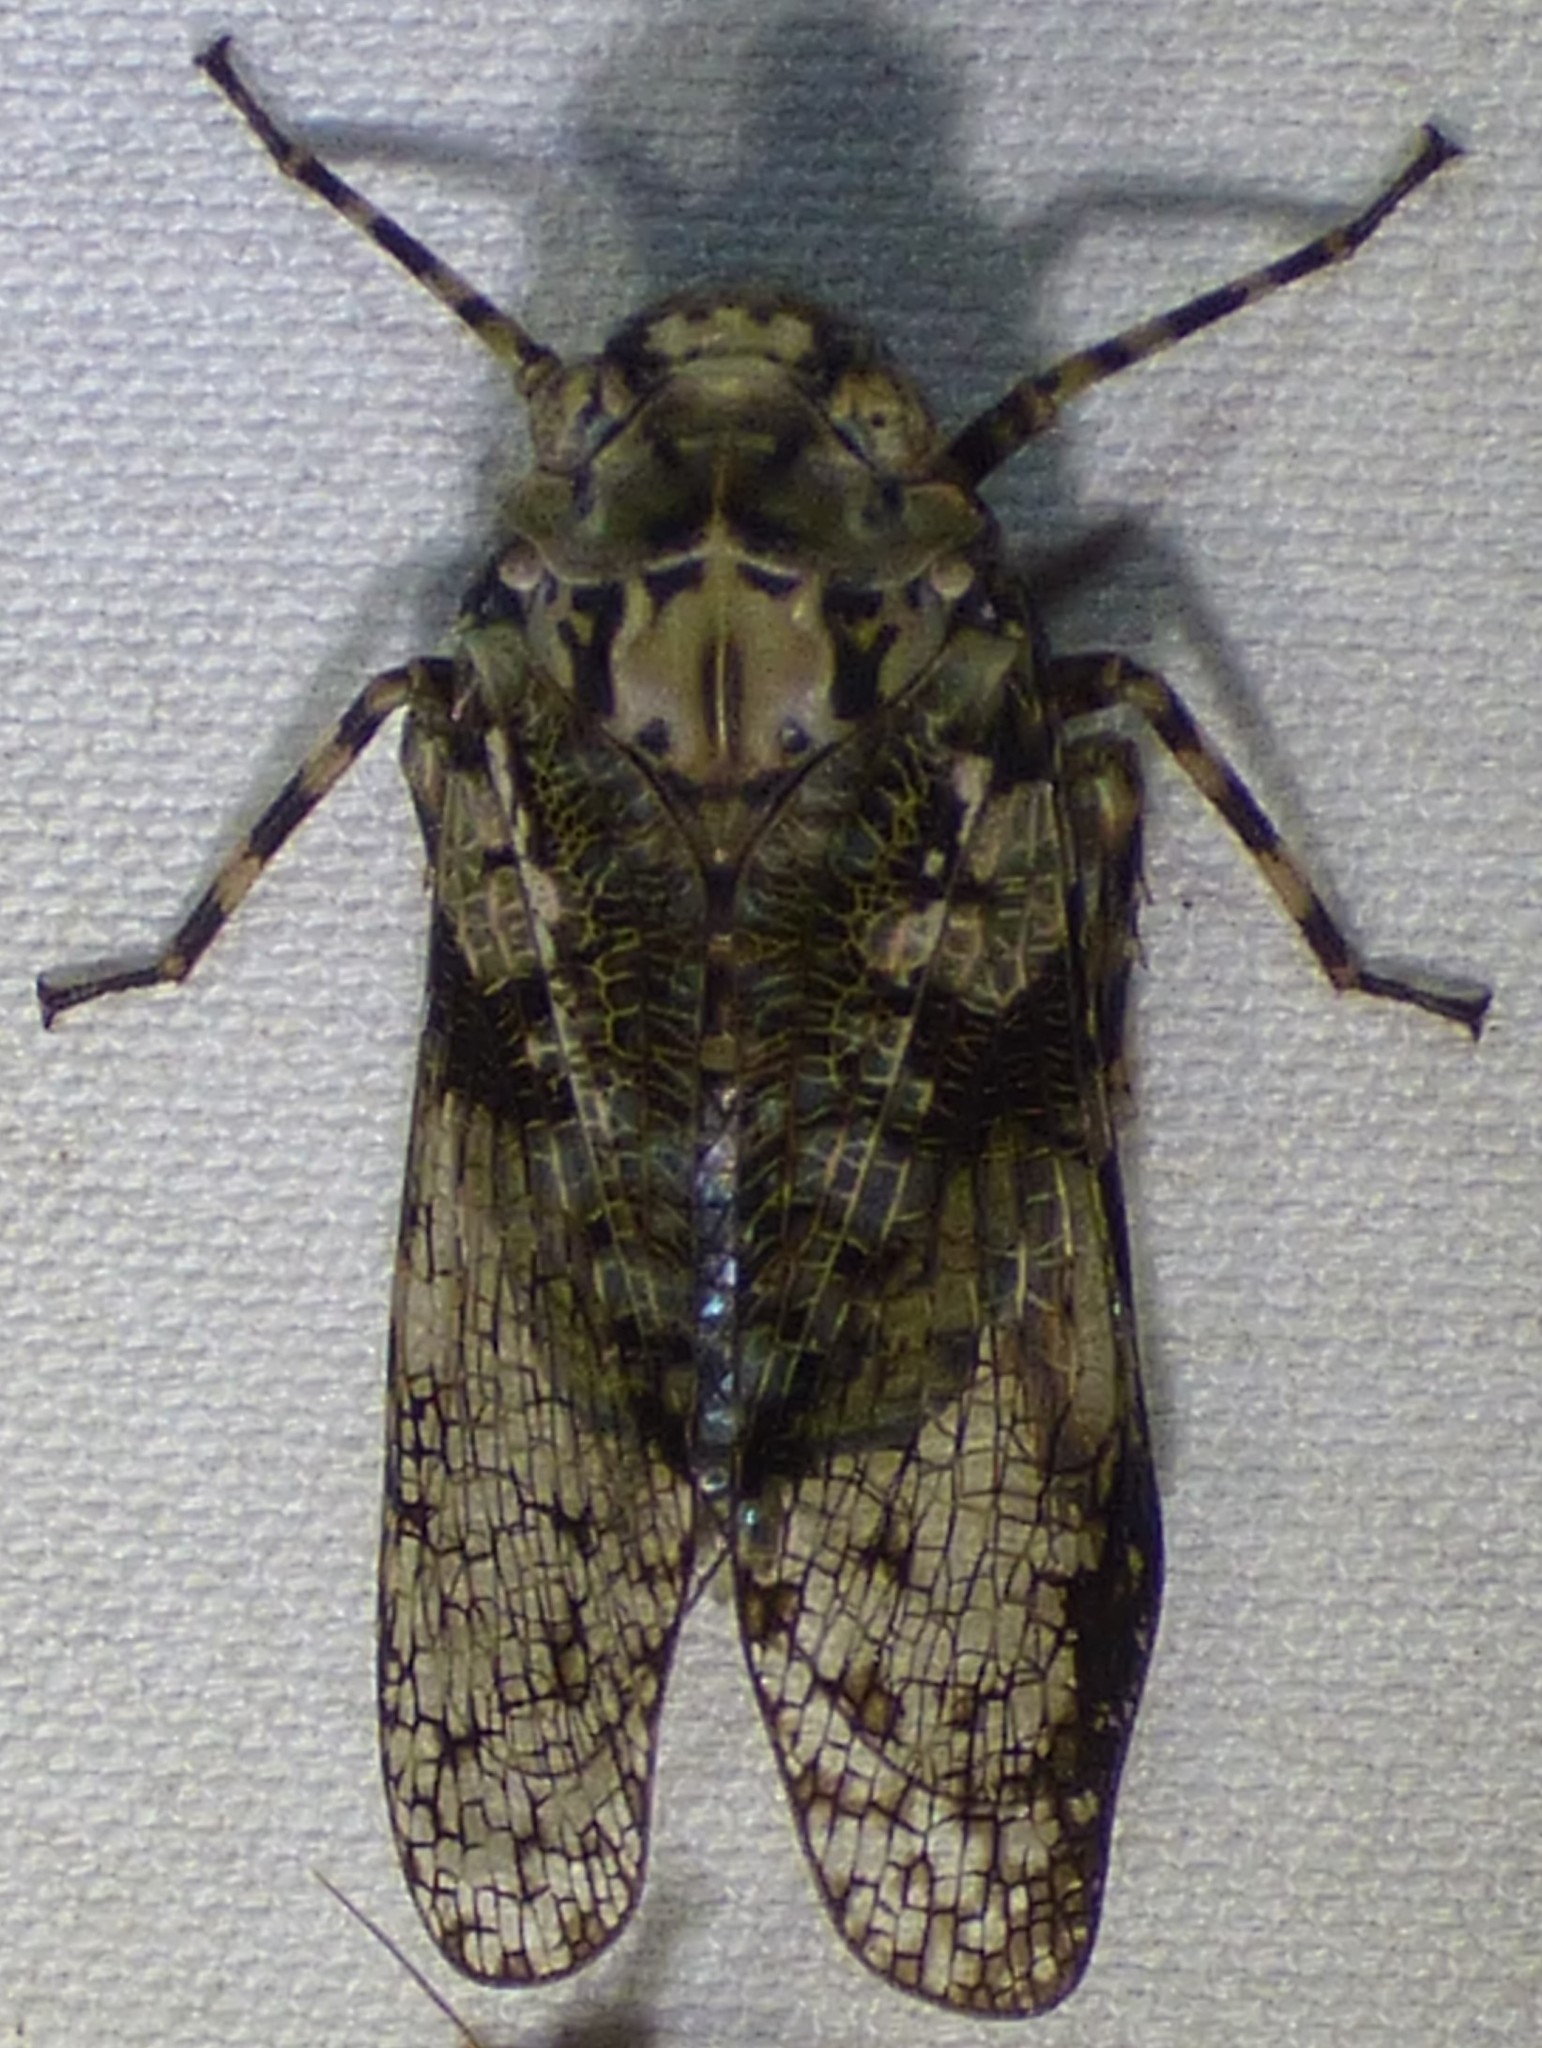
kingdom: Animalia
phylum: Arthropoda
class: Insecta
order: Hemiptera
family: Fulgoridae
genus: Calyptoproctus
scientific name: Calyptoproctus marmoratus
